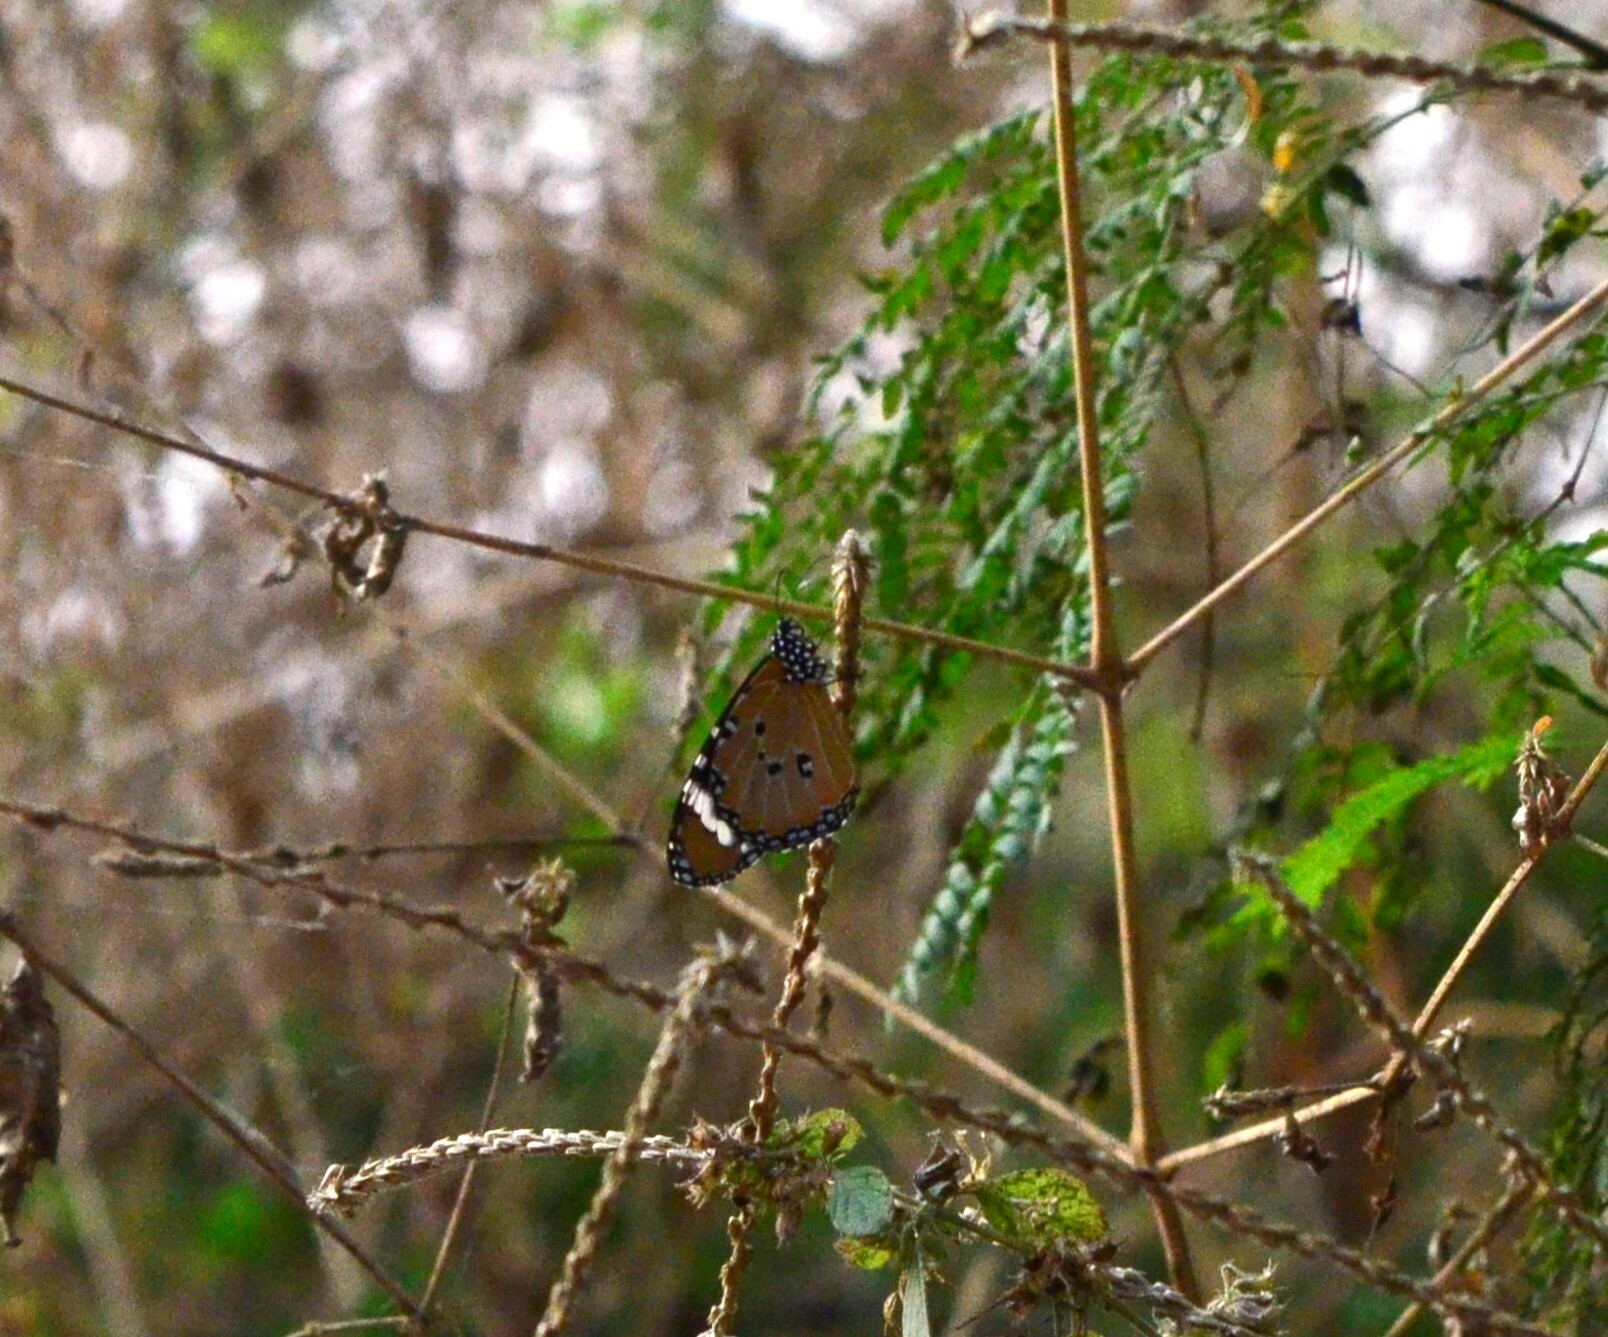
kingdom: Animalia
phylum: Arthropoda
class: Insecta
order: Lepidoptera
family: Nymphalidae
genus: Danaus
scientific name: Danaus chrysippus
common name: Plain tiger
